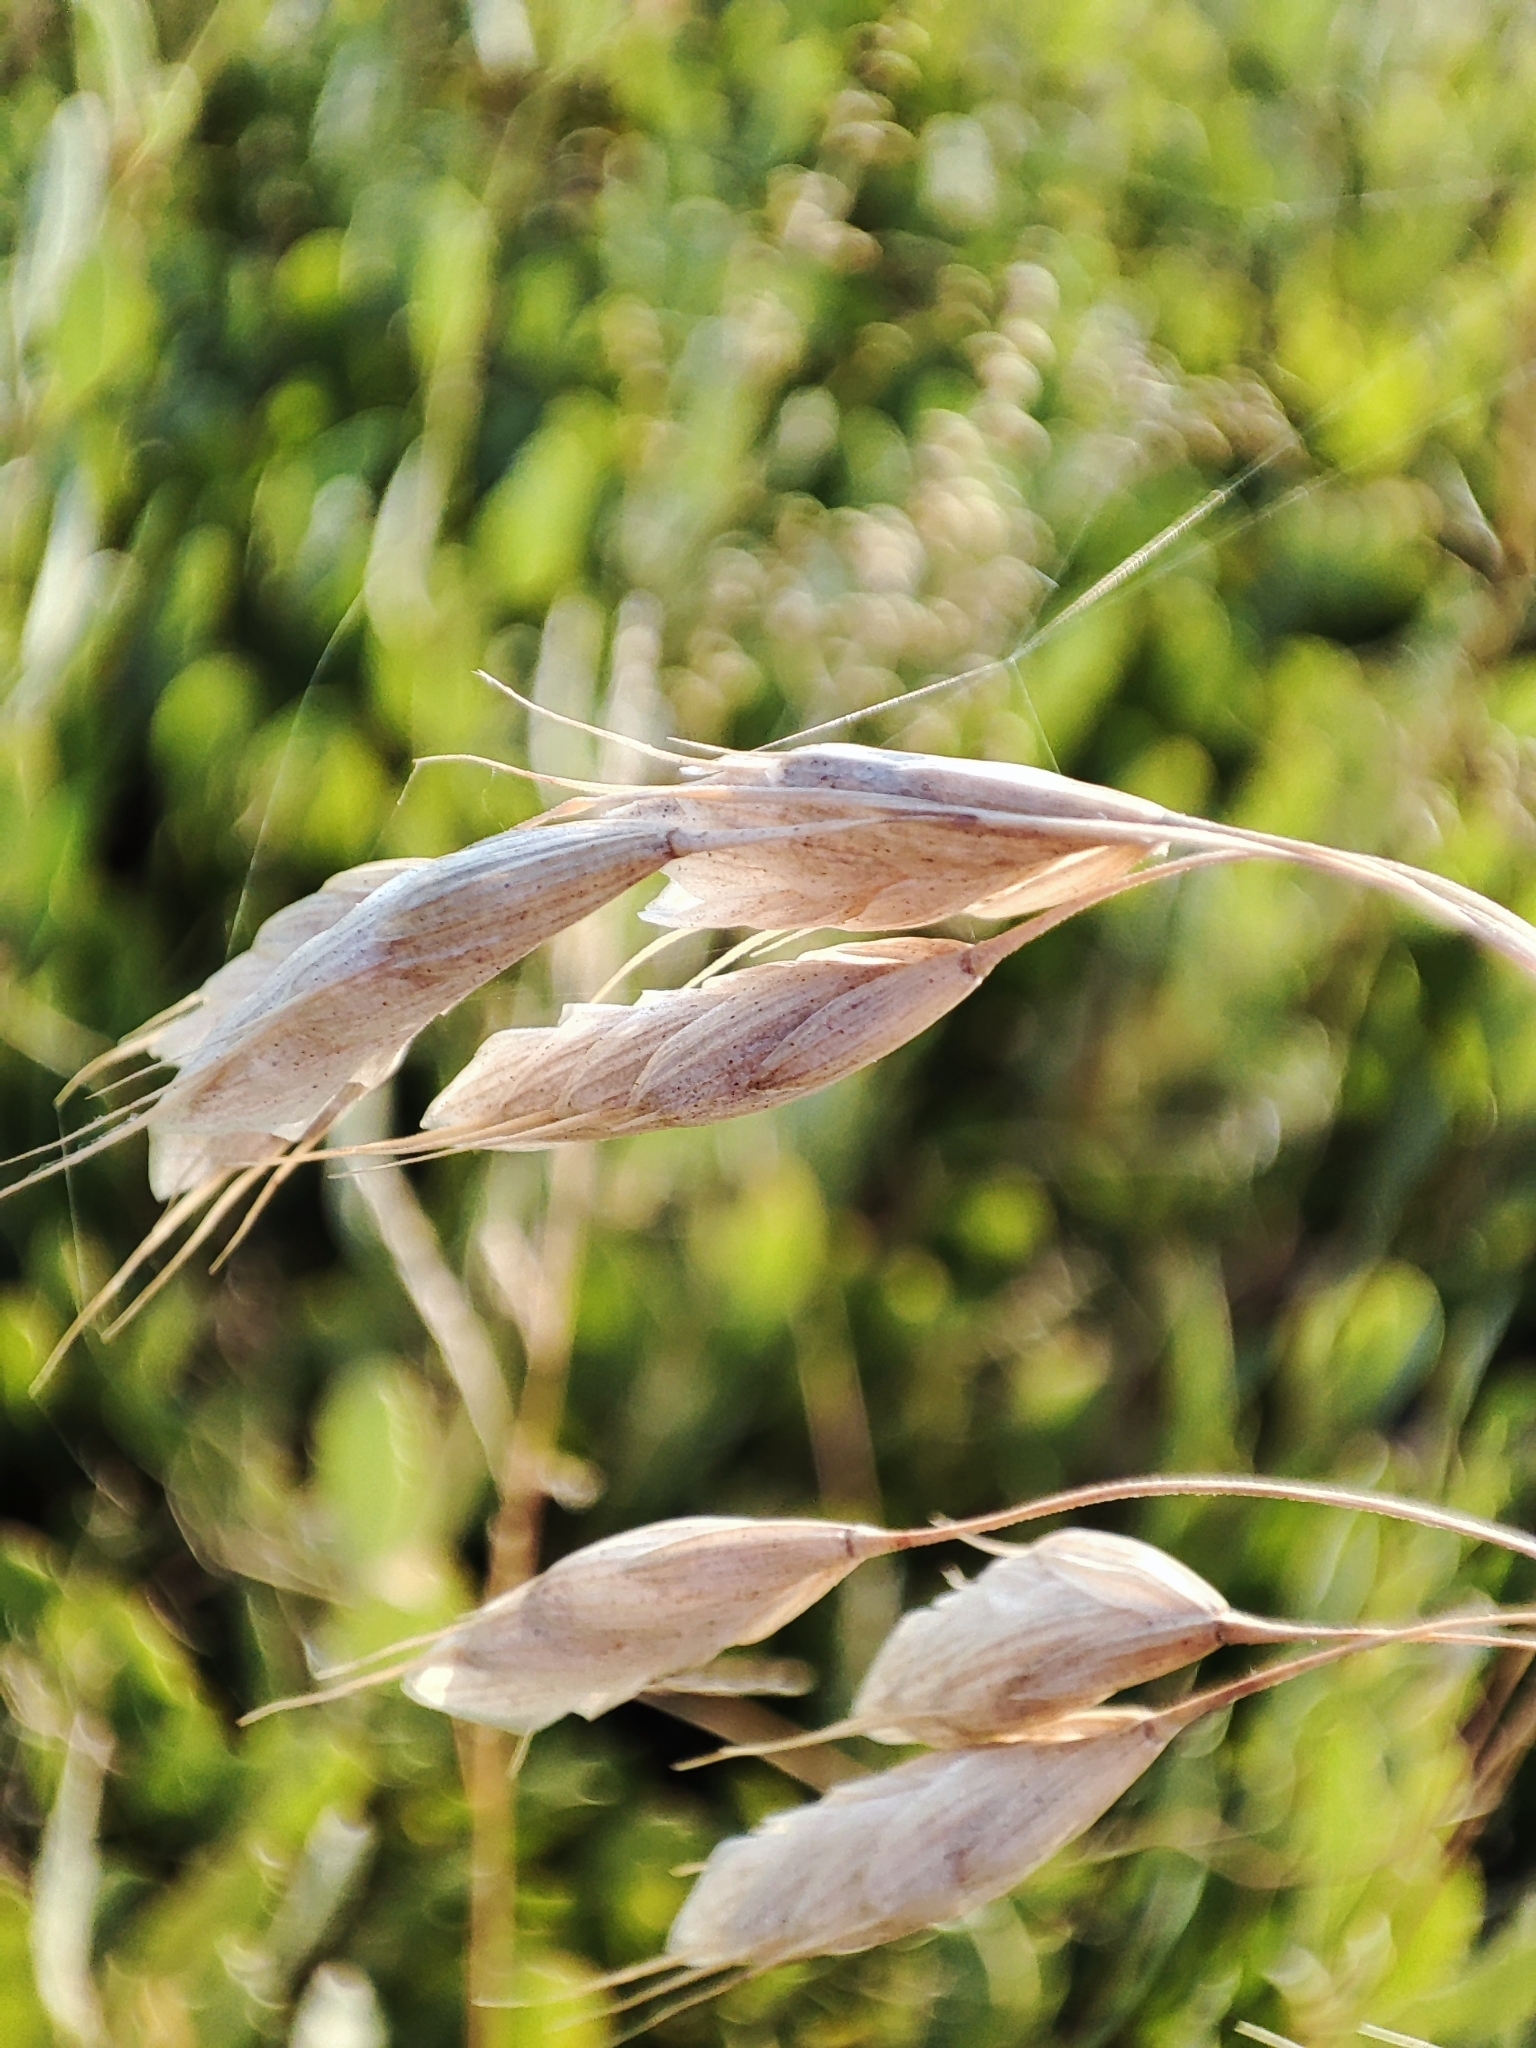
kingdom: Plantae
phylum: Tracheophyta
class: Liliopsida
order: Poales
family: Poaceae
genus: Bromus
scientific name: Bromus squarrosus
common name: Corn brome
